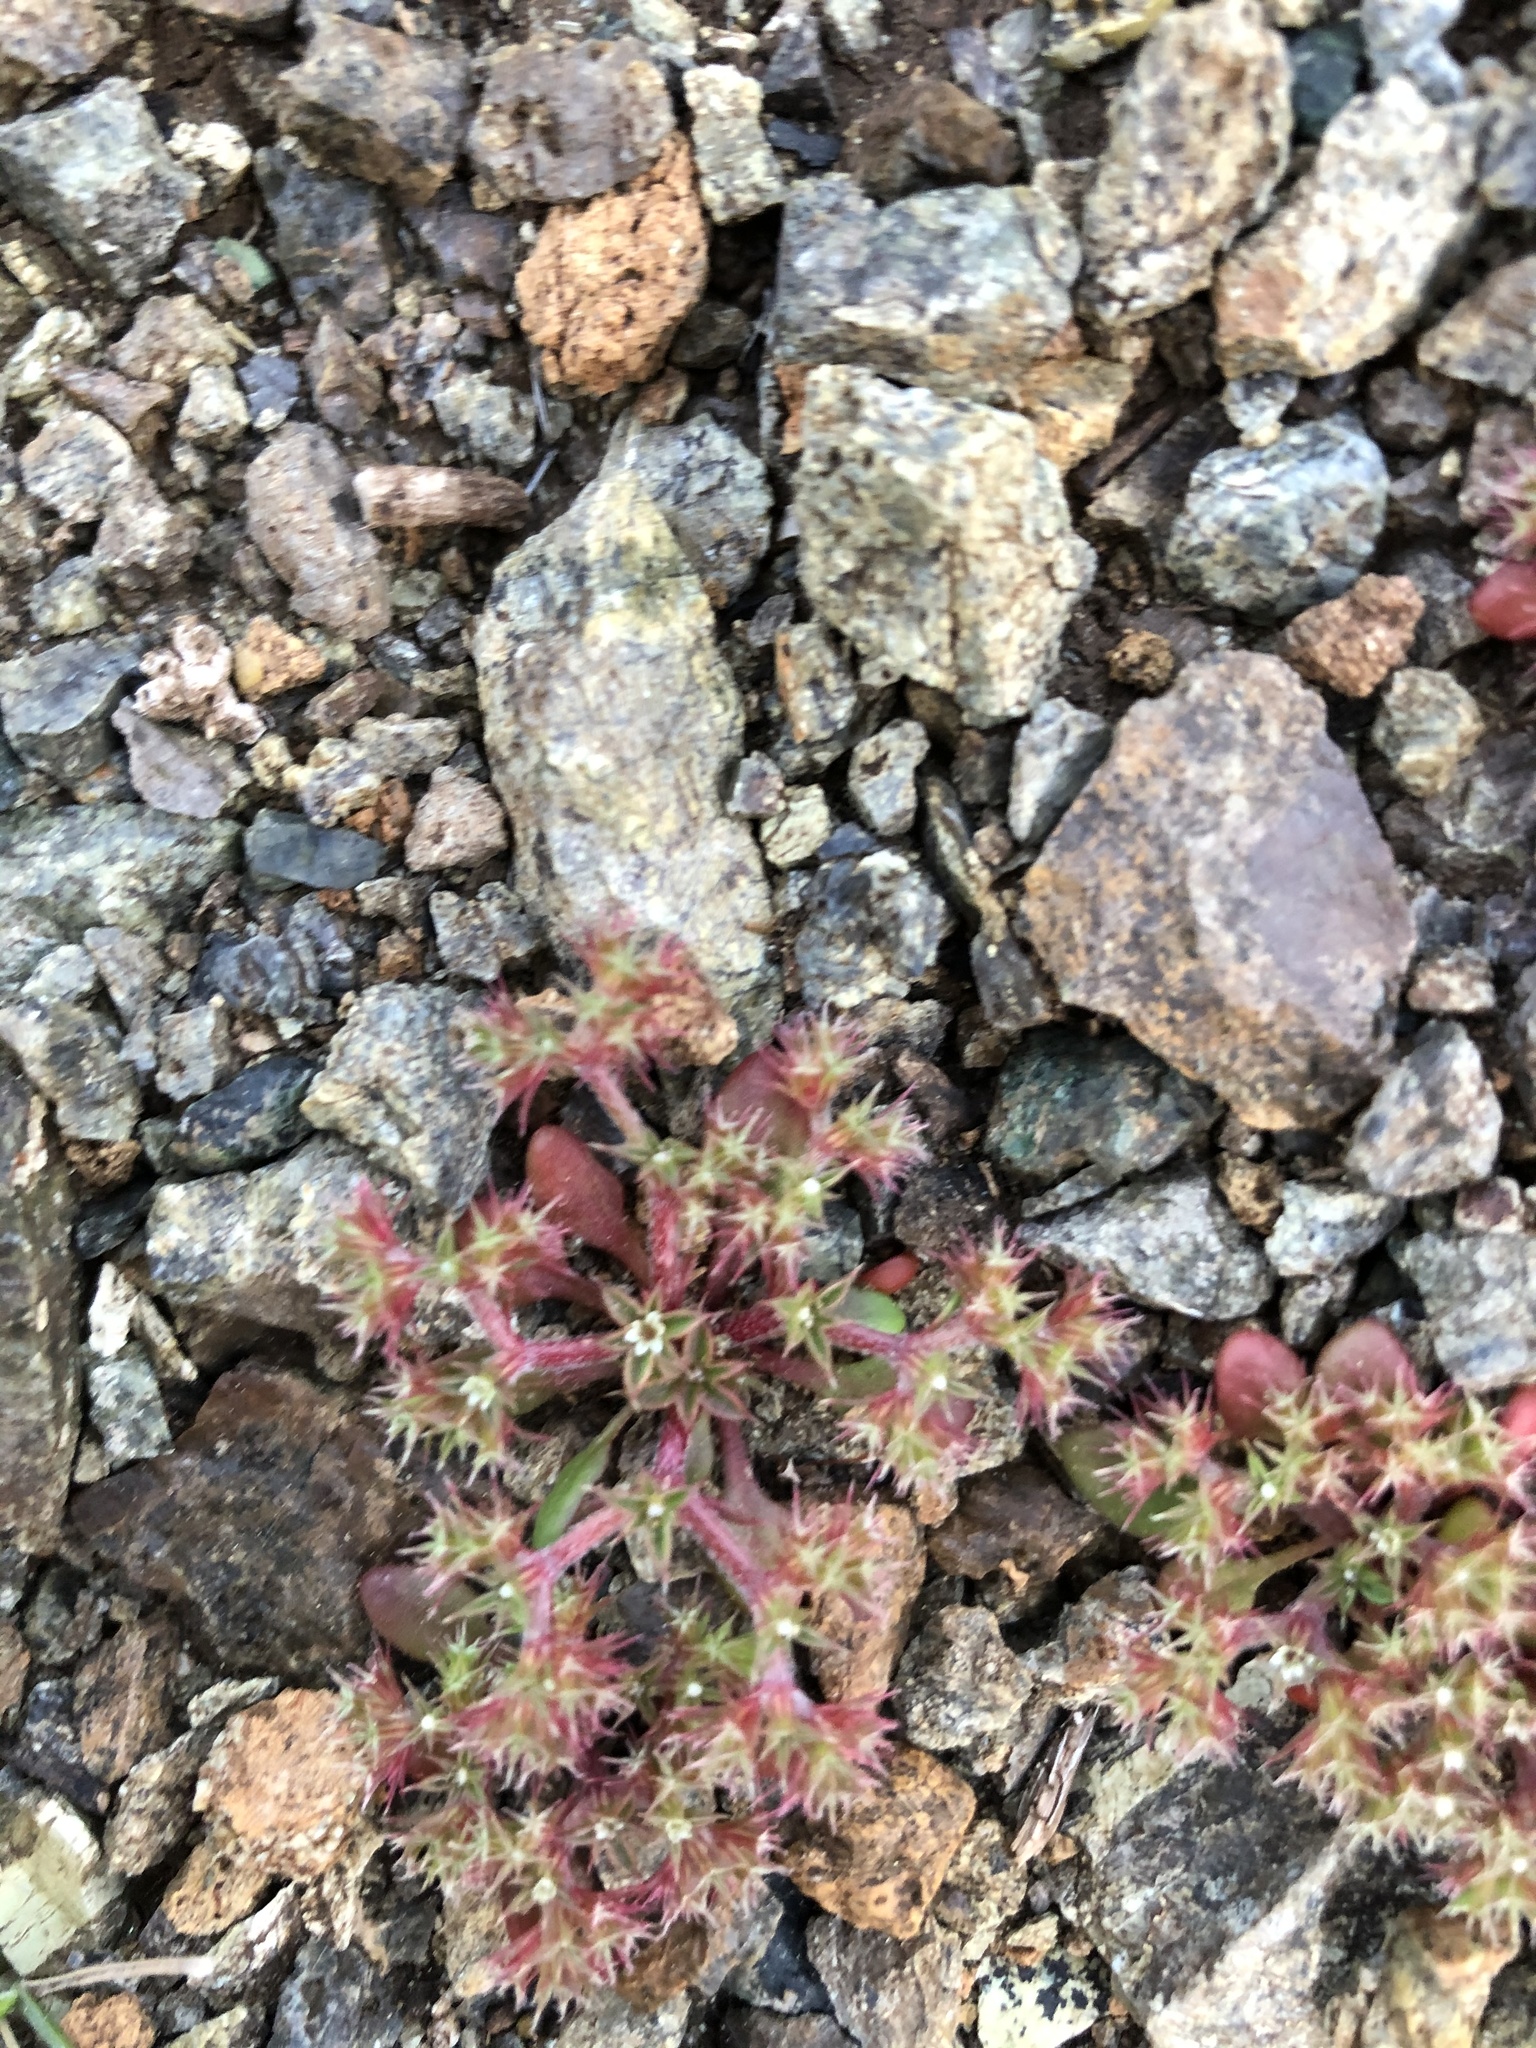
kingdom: Plantae
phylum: Tracheophyta
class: Magnoliopsida
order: Caryophyllales
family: Polygonaceae
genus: Chorizanthe
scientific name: Chorizanthe aphanantha
